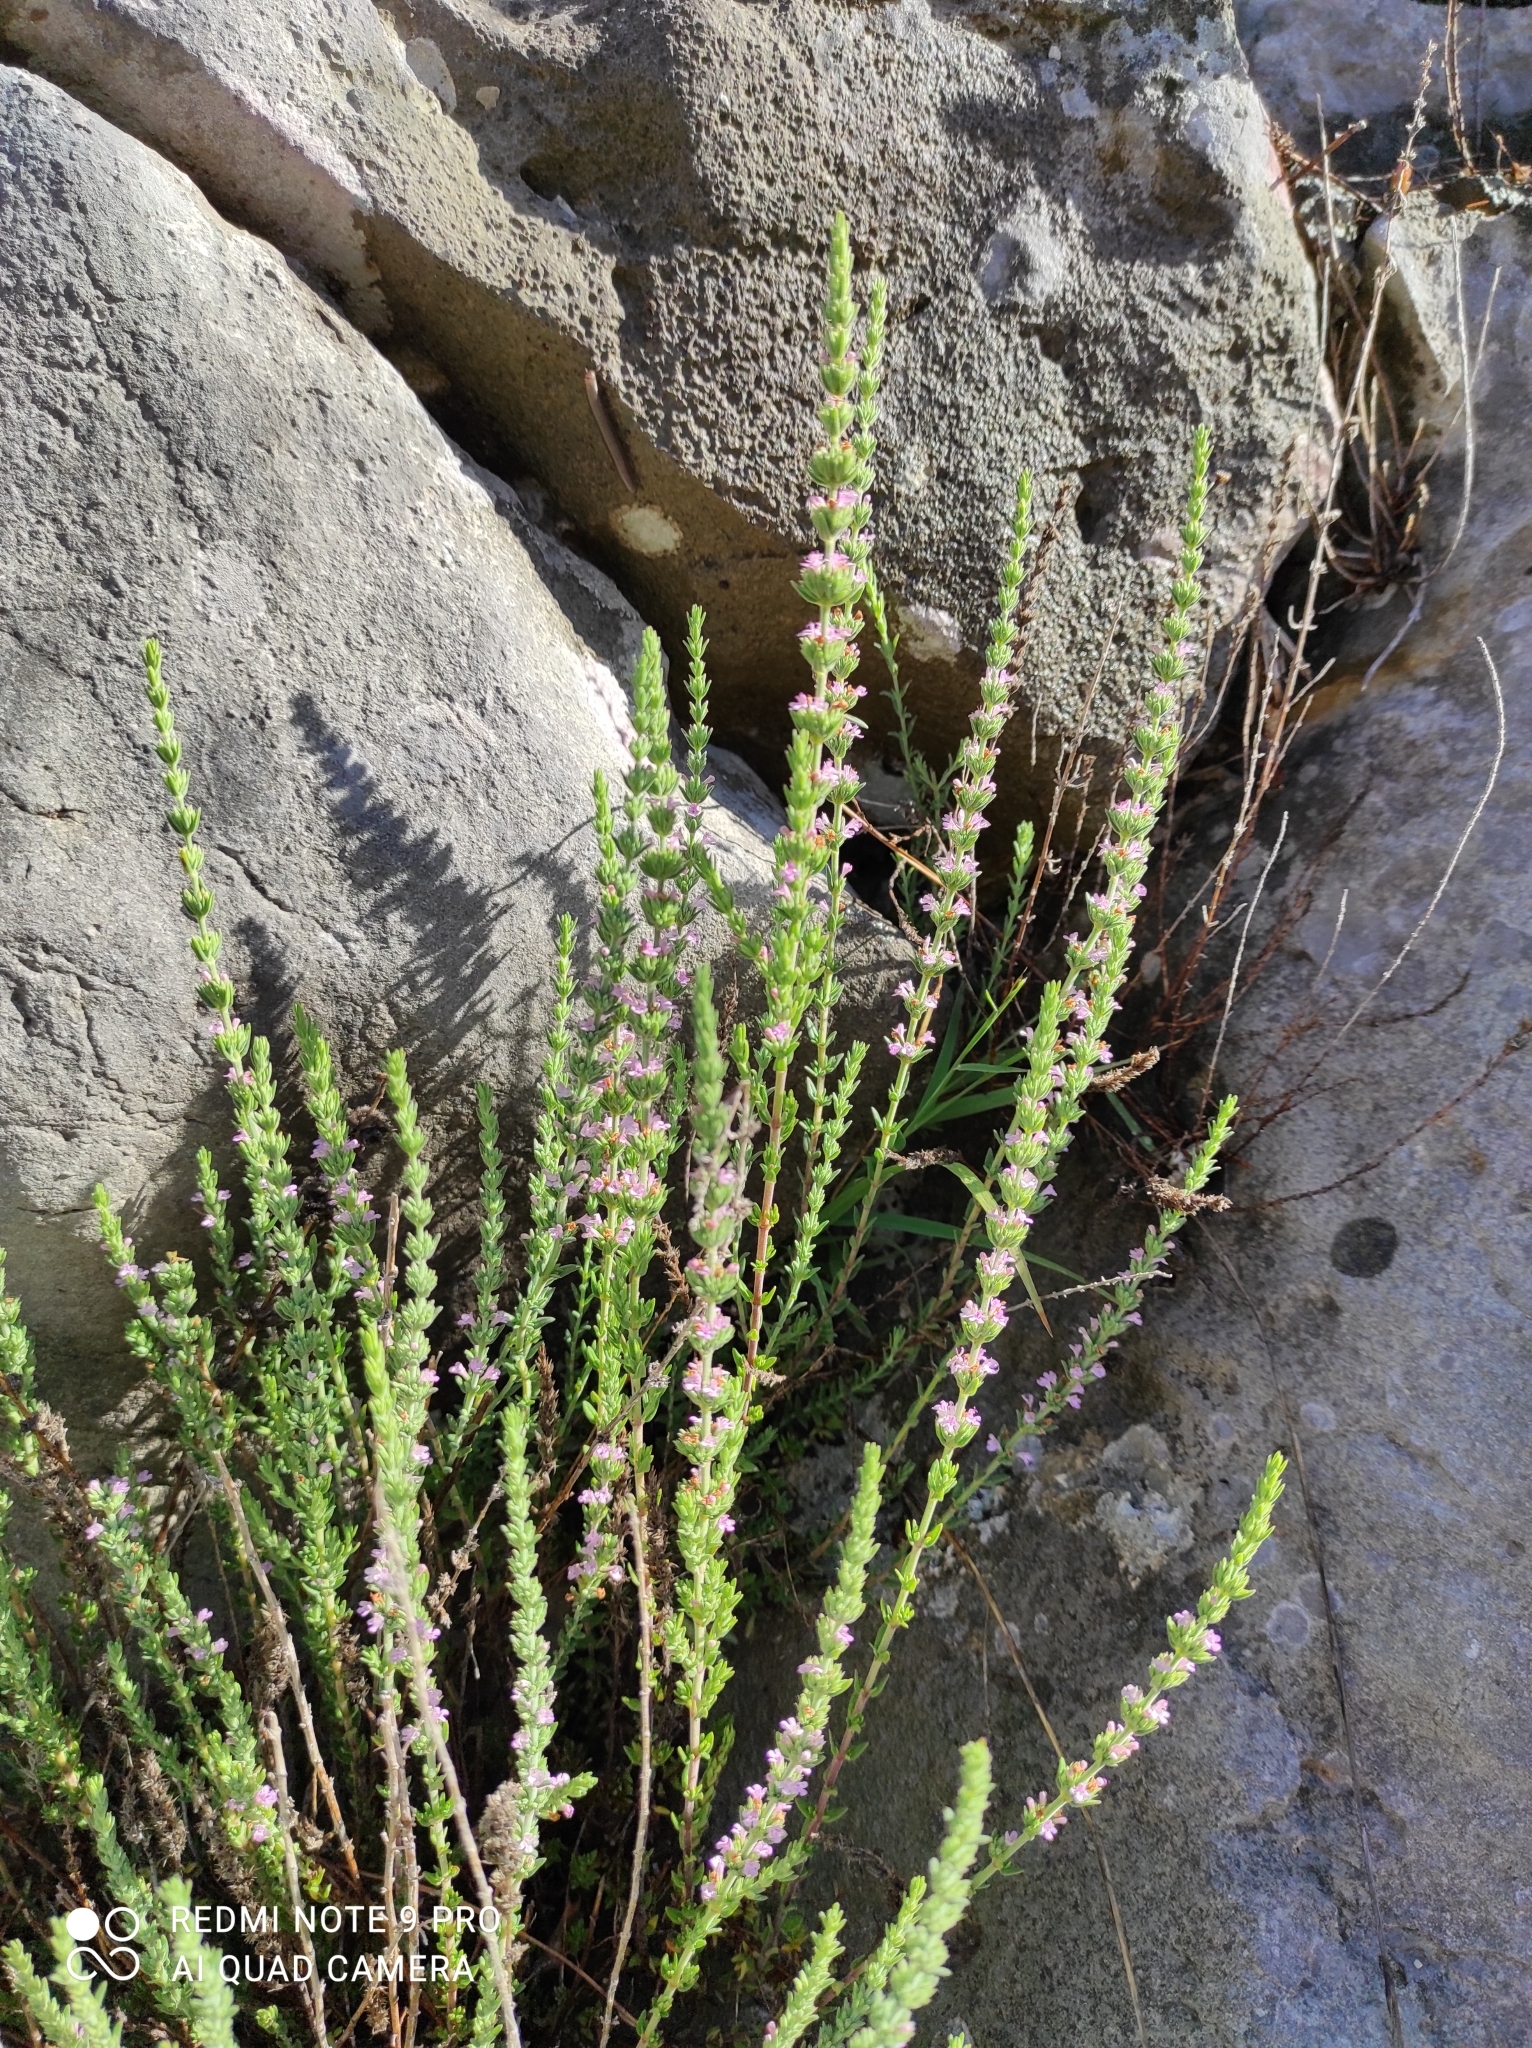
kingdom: Plantae
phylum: Tracheophyta
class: Magnoliopsida
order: Lamiales
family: Lamiaceae
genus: Micromeria
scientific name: Micromeria juliana
